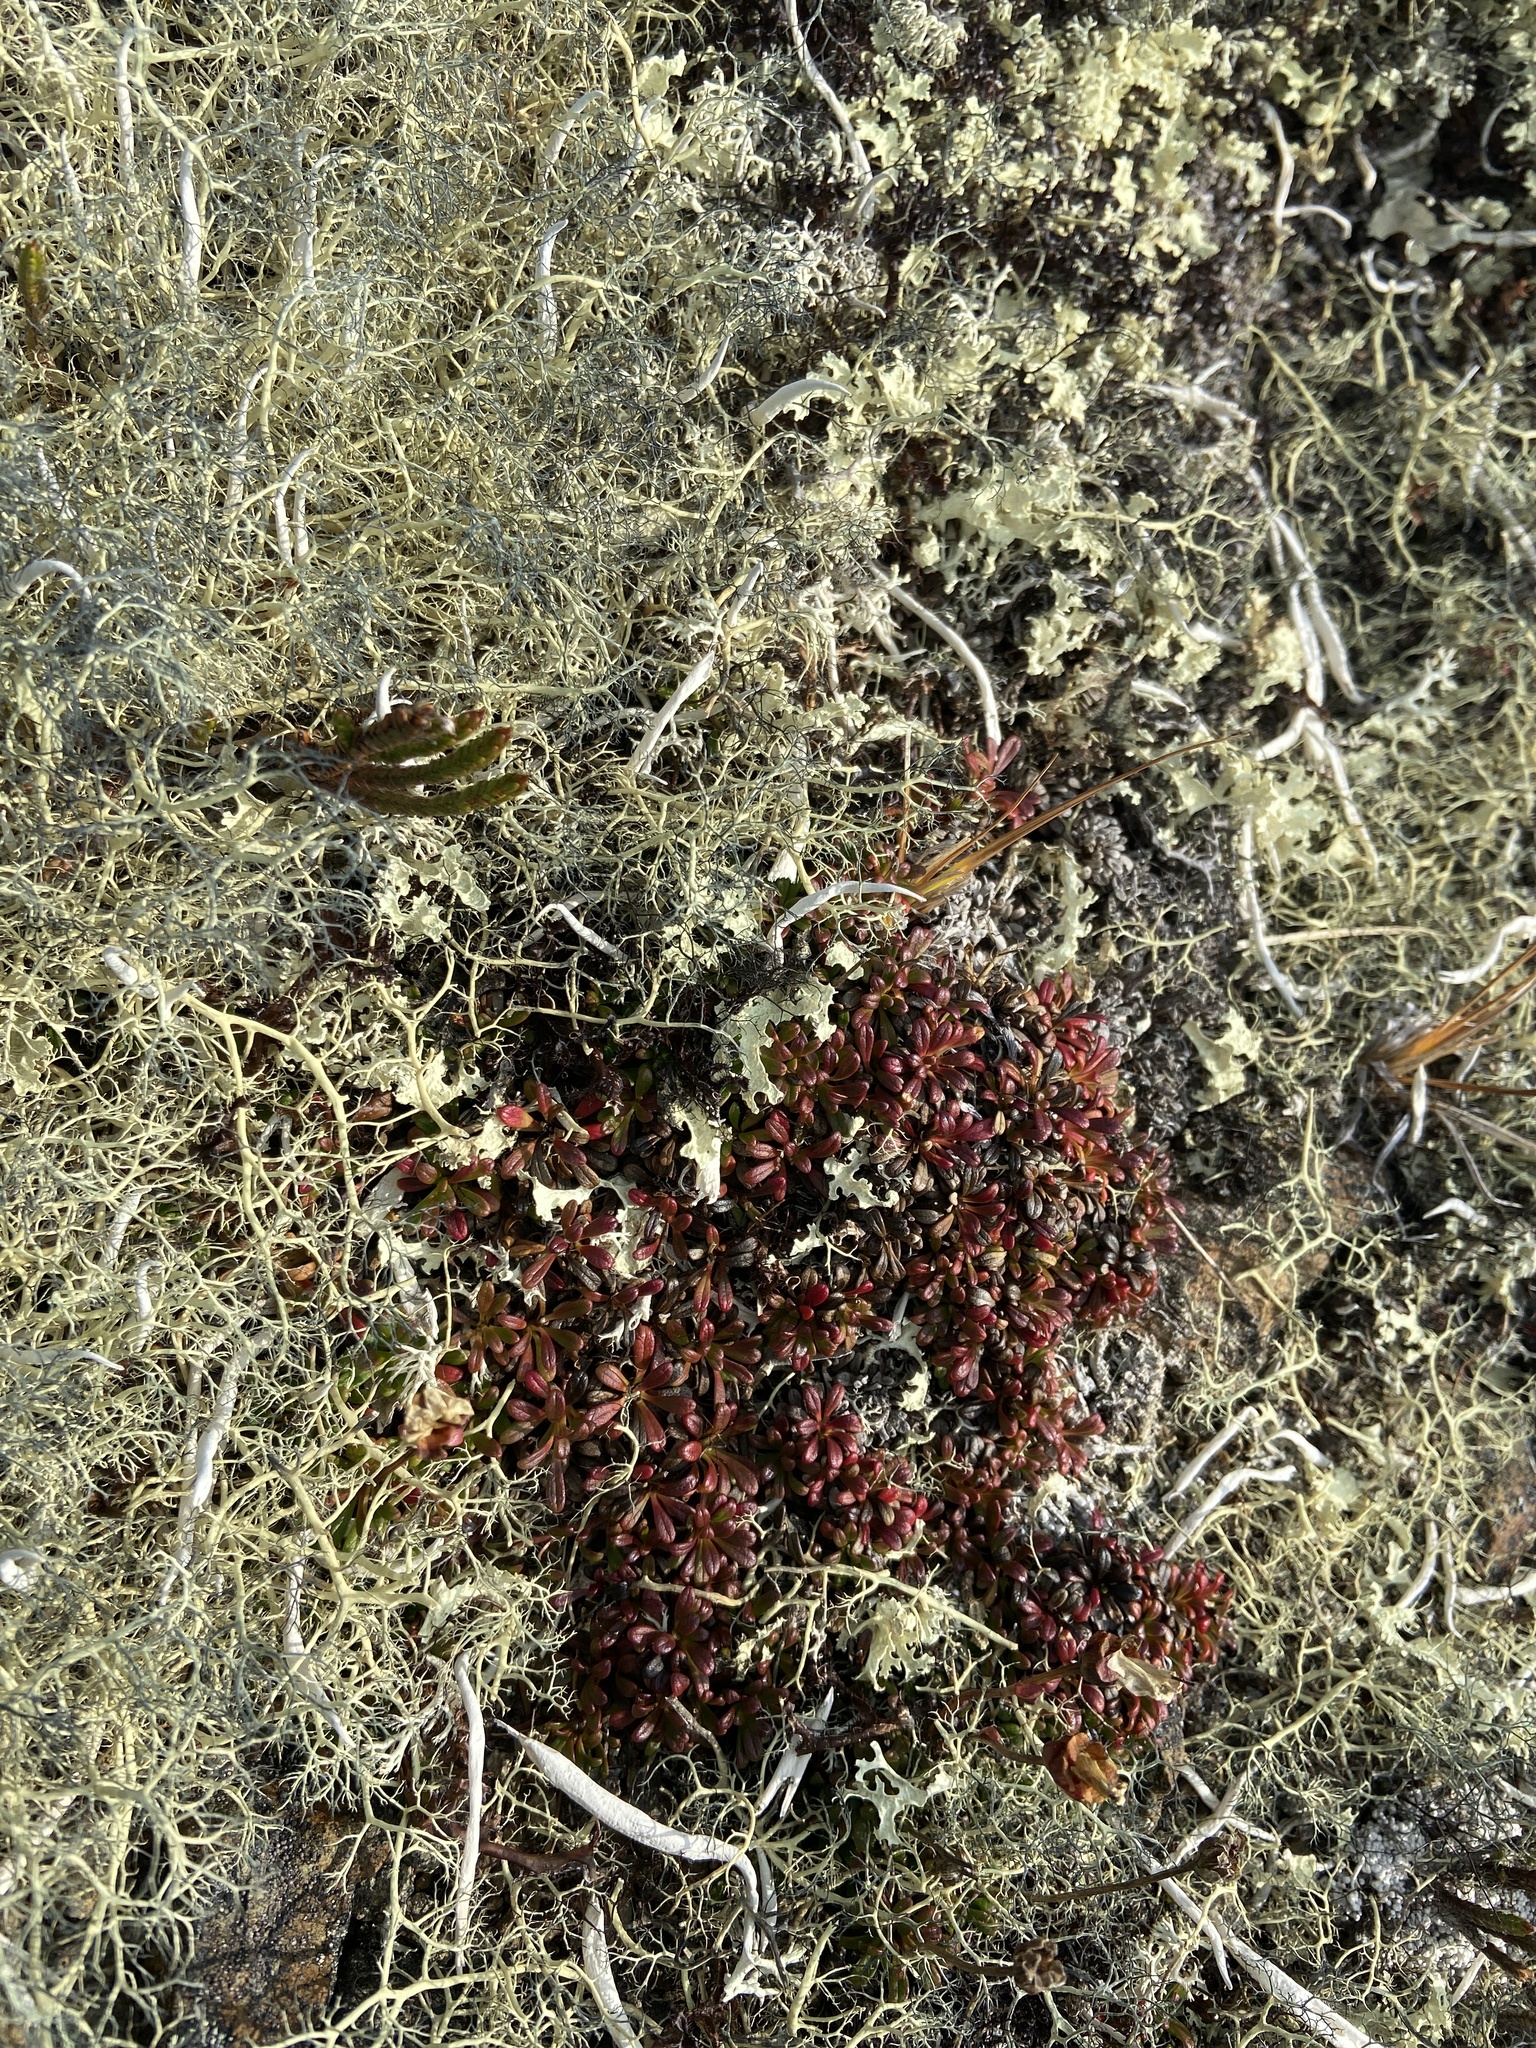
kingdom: Plantae
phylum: Tracheophyta
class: Magnoliopsida
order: Ericales
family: Diapensiaceae
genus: Diapensia
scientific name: Diapensia obovata
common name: Alaska diapensia
